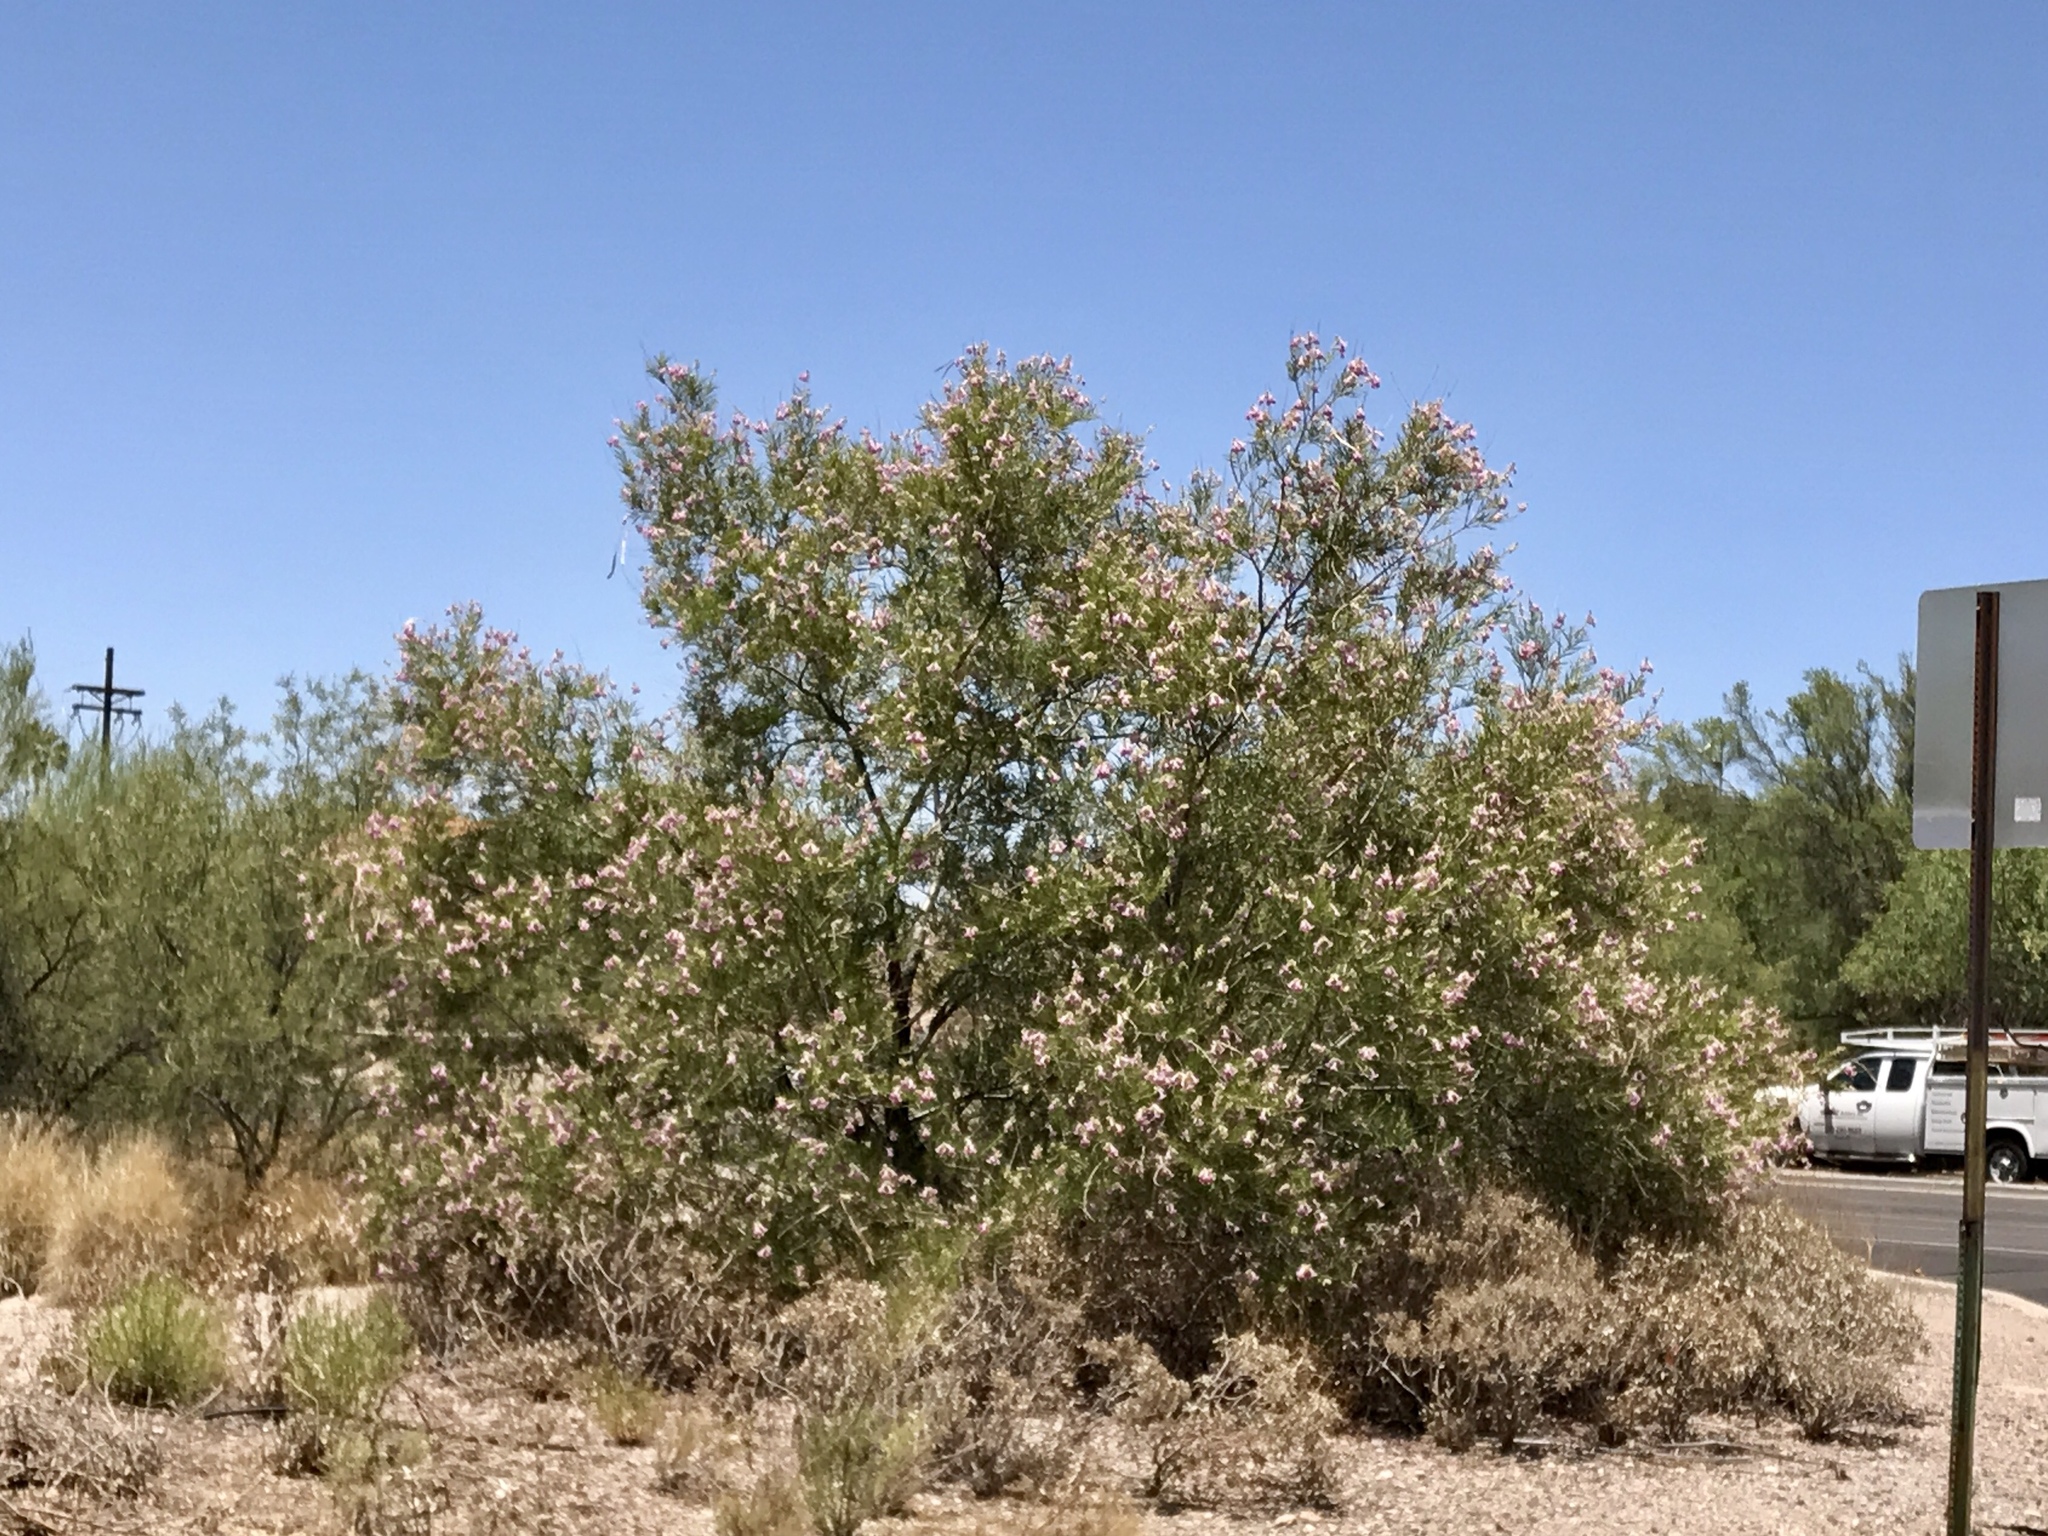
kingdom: Plantae
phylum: Tracheophyta
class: Magnoliopsida
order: Lamiales
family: Bignoniaceae
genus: Chilopsis
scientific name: Chilopsis linearis
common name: Desert-willow
